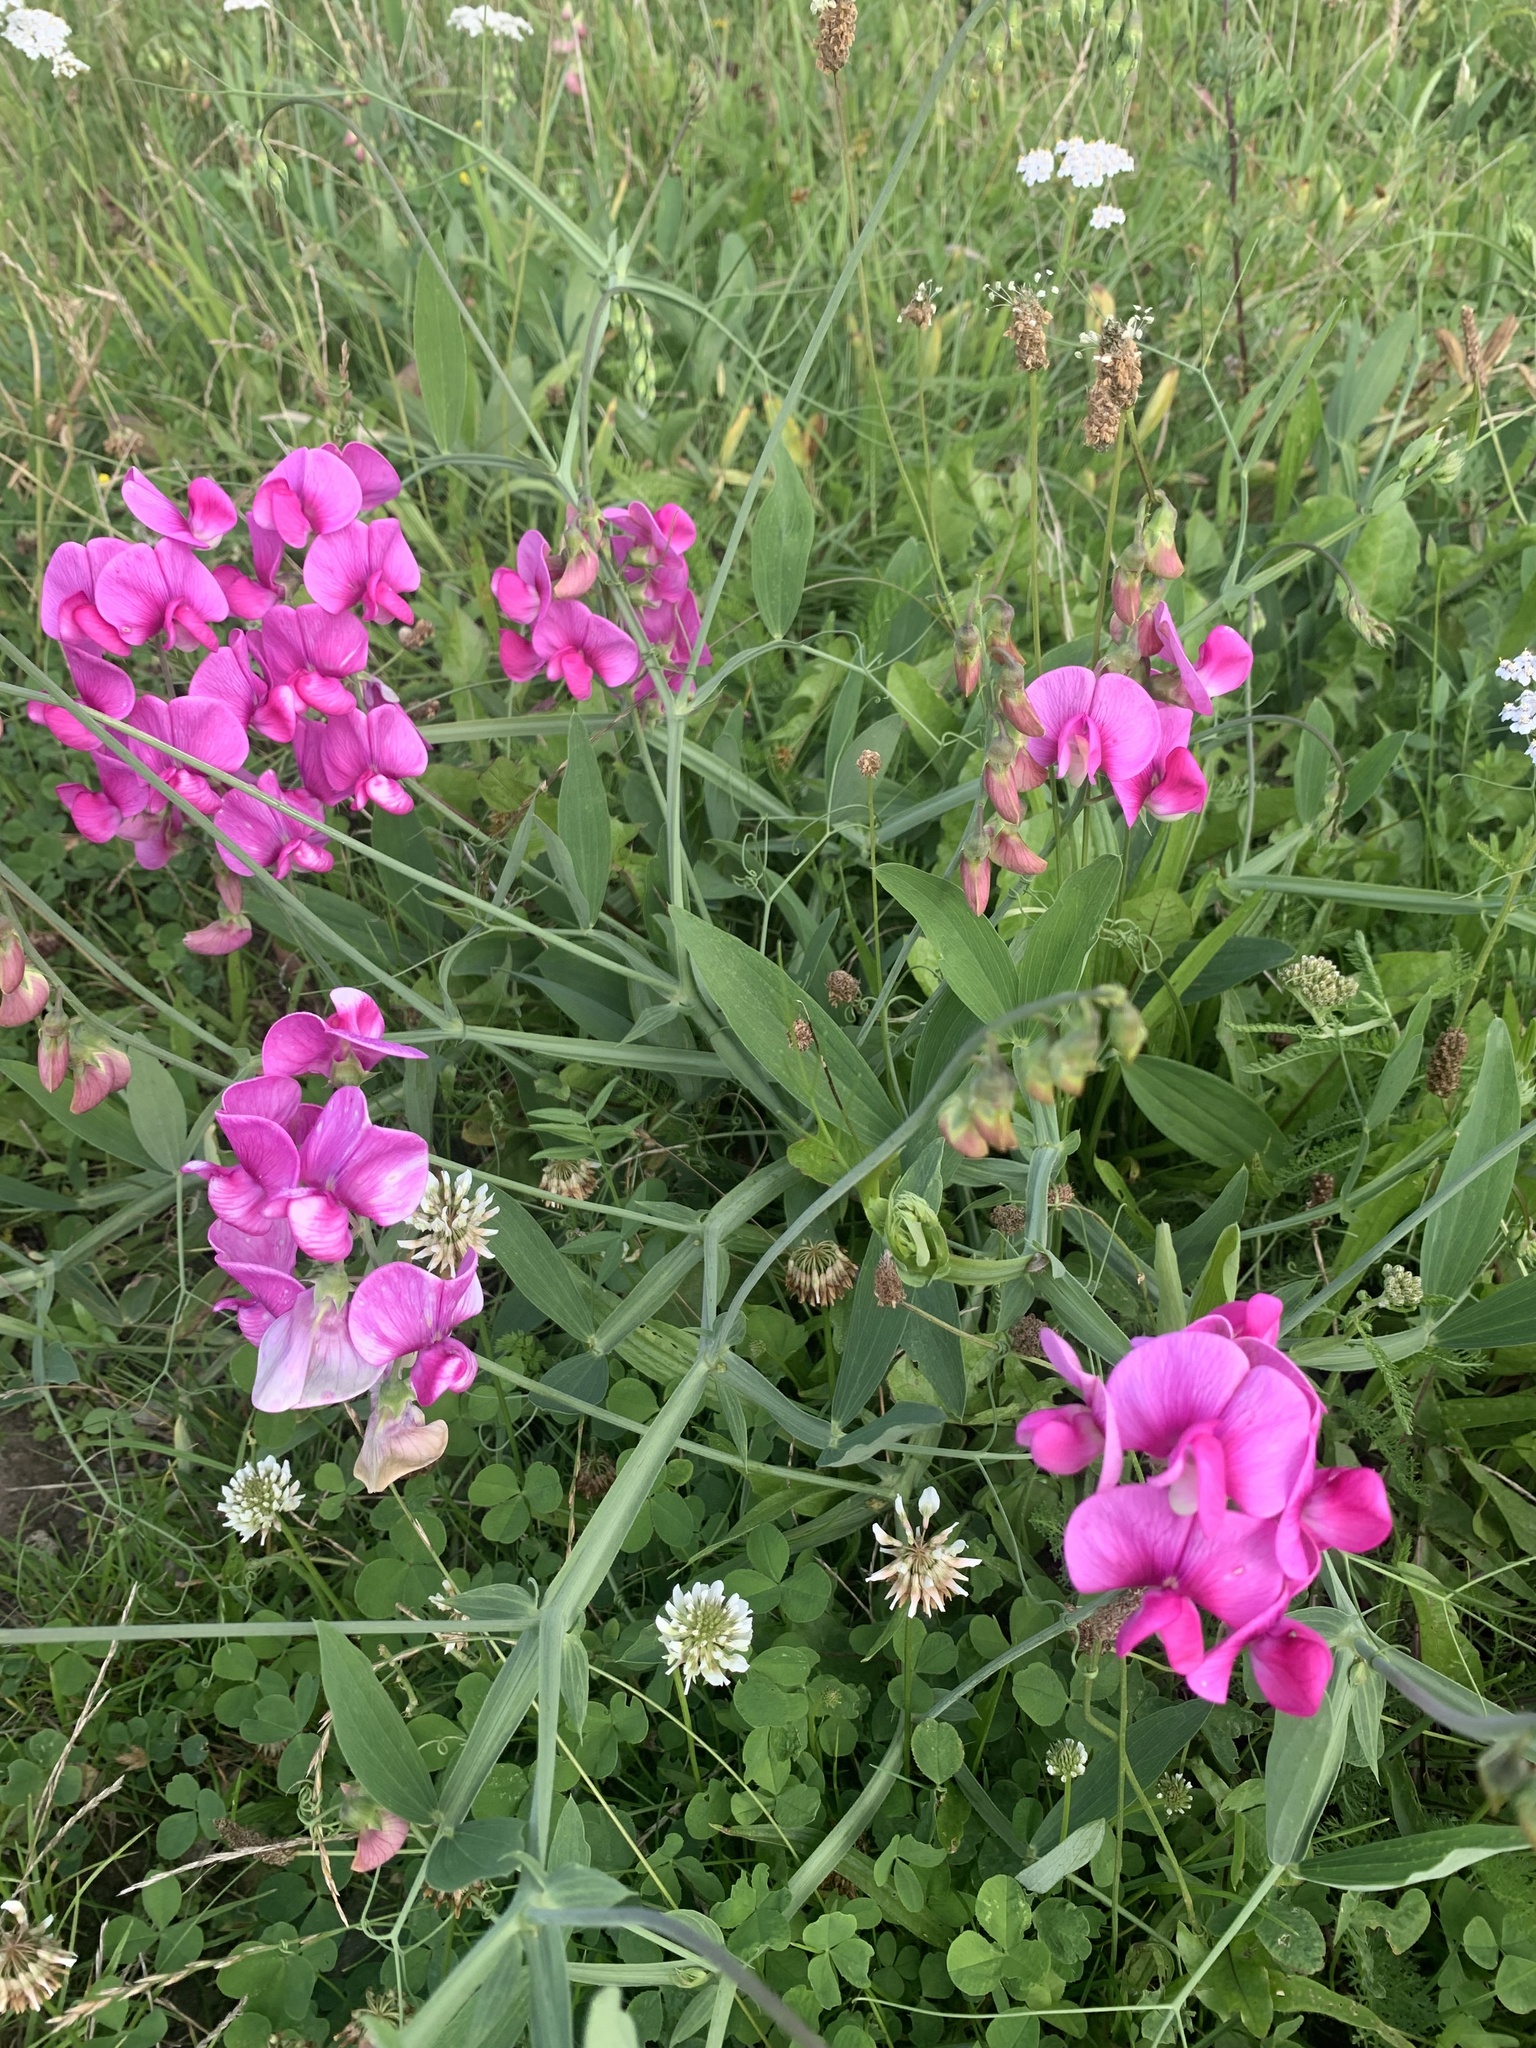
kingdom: Plantae
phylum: Tracheophyta
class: Magnoliopsida
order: Fabales
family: Fabaceae
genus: Lathyrus
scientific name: Lathyrus latifolius
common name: Perennial pea
